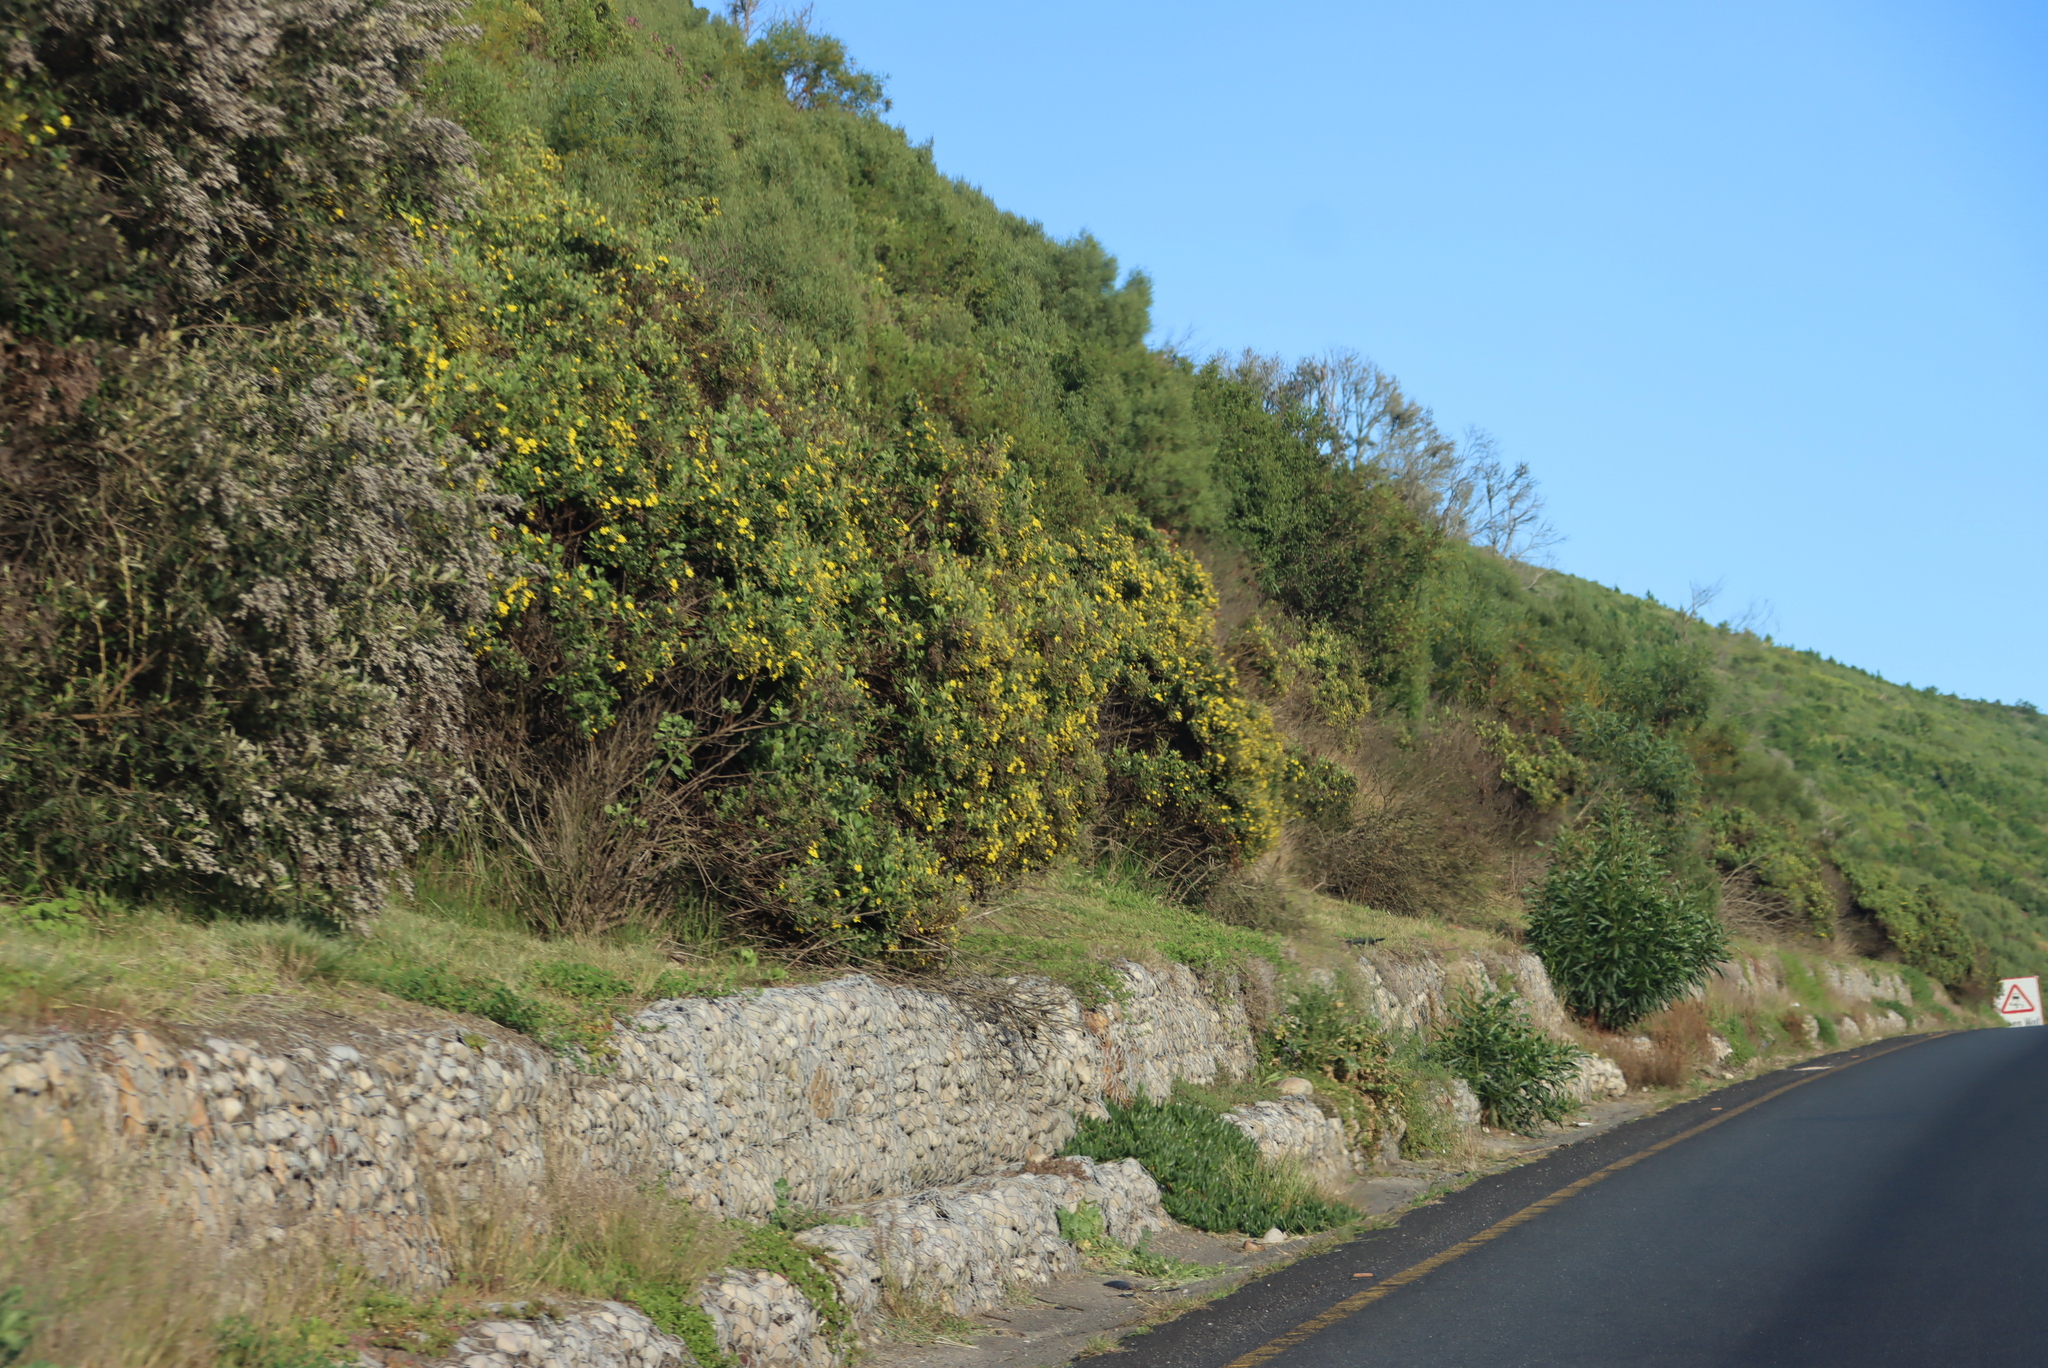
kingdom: Plantae
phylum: Tracheophyta
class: Magnoliopsida
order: Asterales
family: Asteraceae
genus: Osteospermum
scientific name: Osteospermum moniliferum
